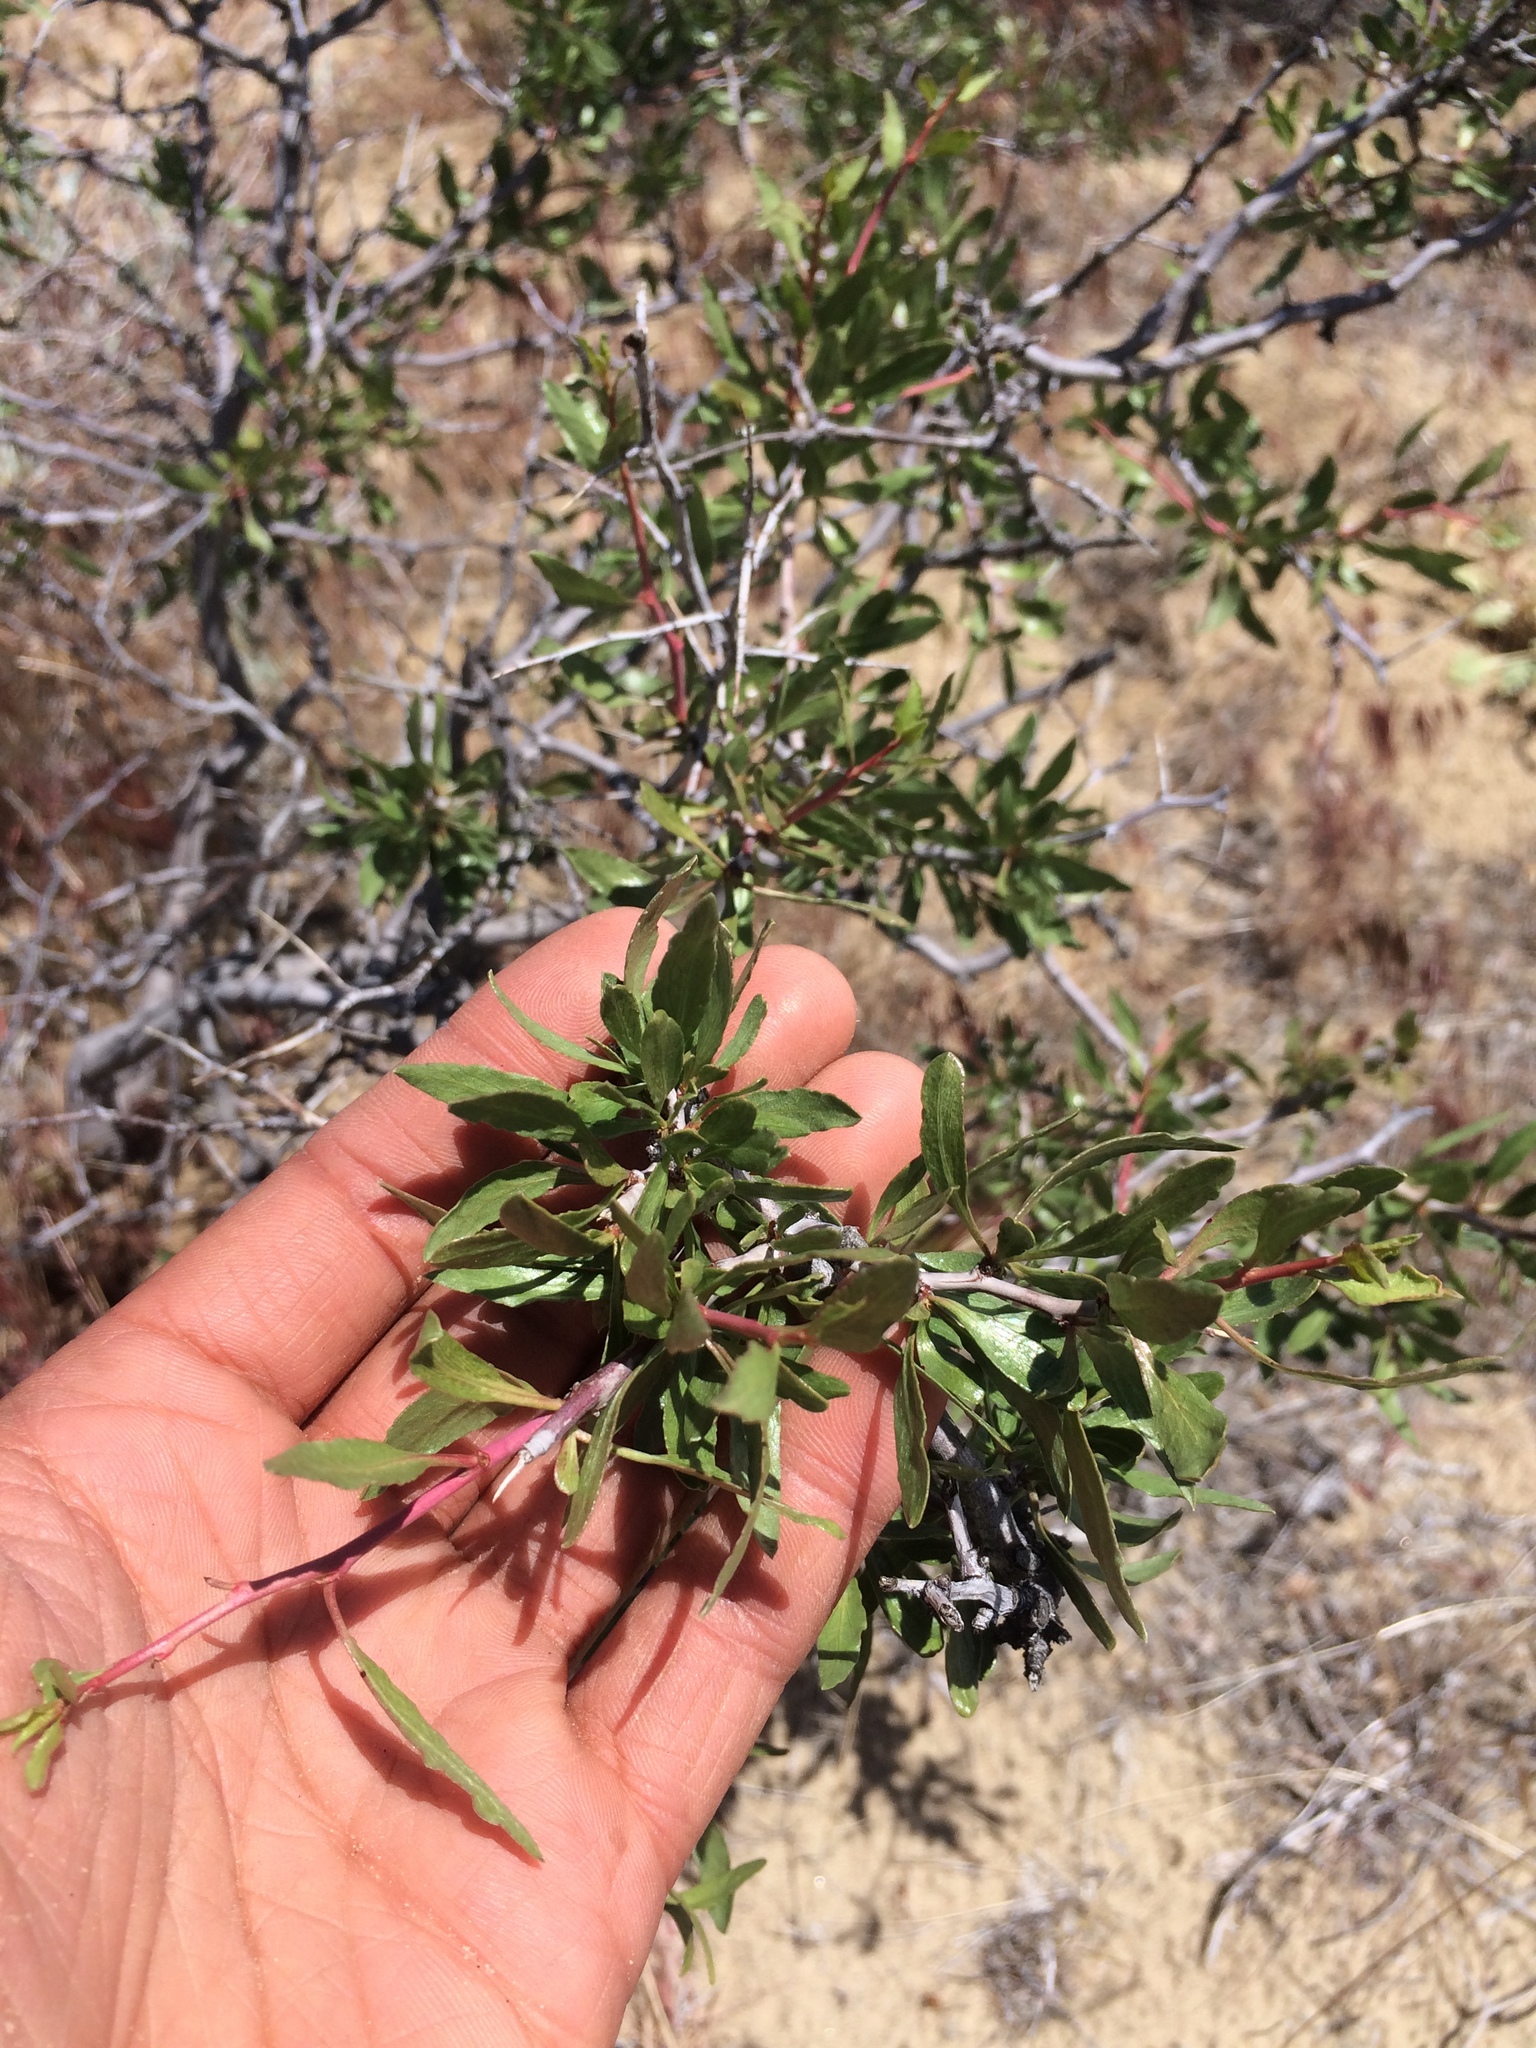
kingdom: Plantae
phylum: Tracheophyta
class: Magnoliopsida
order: Rosales
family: Rosaceae
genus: Prunus
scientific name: Prunus andersonii
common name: Desert peach
